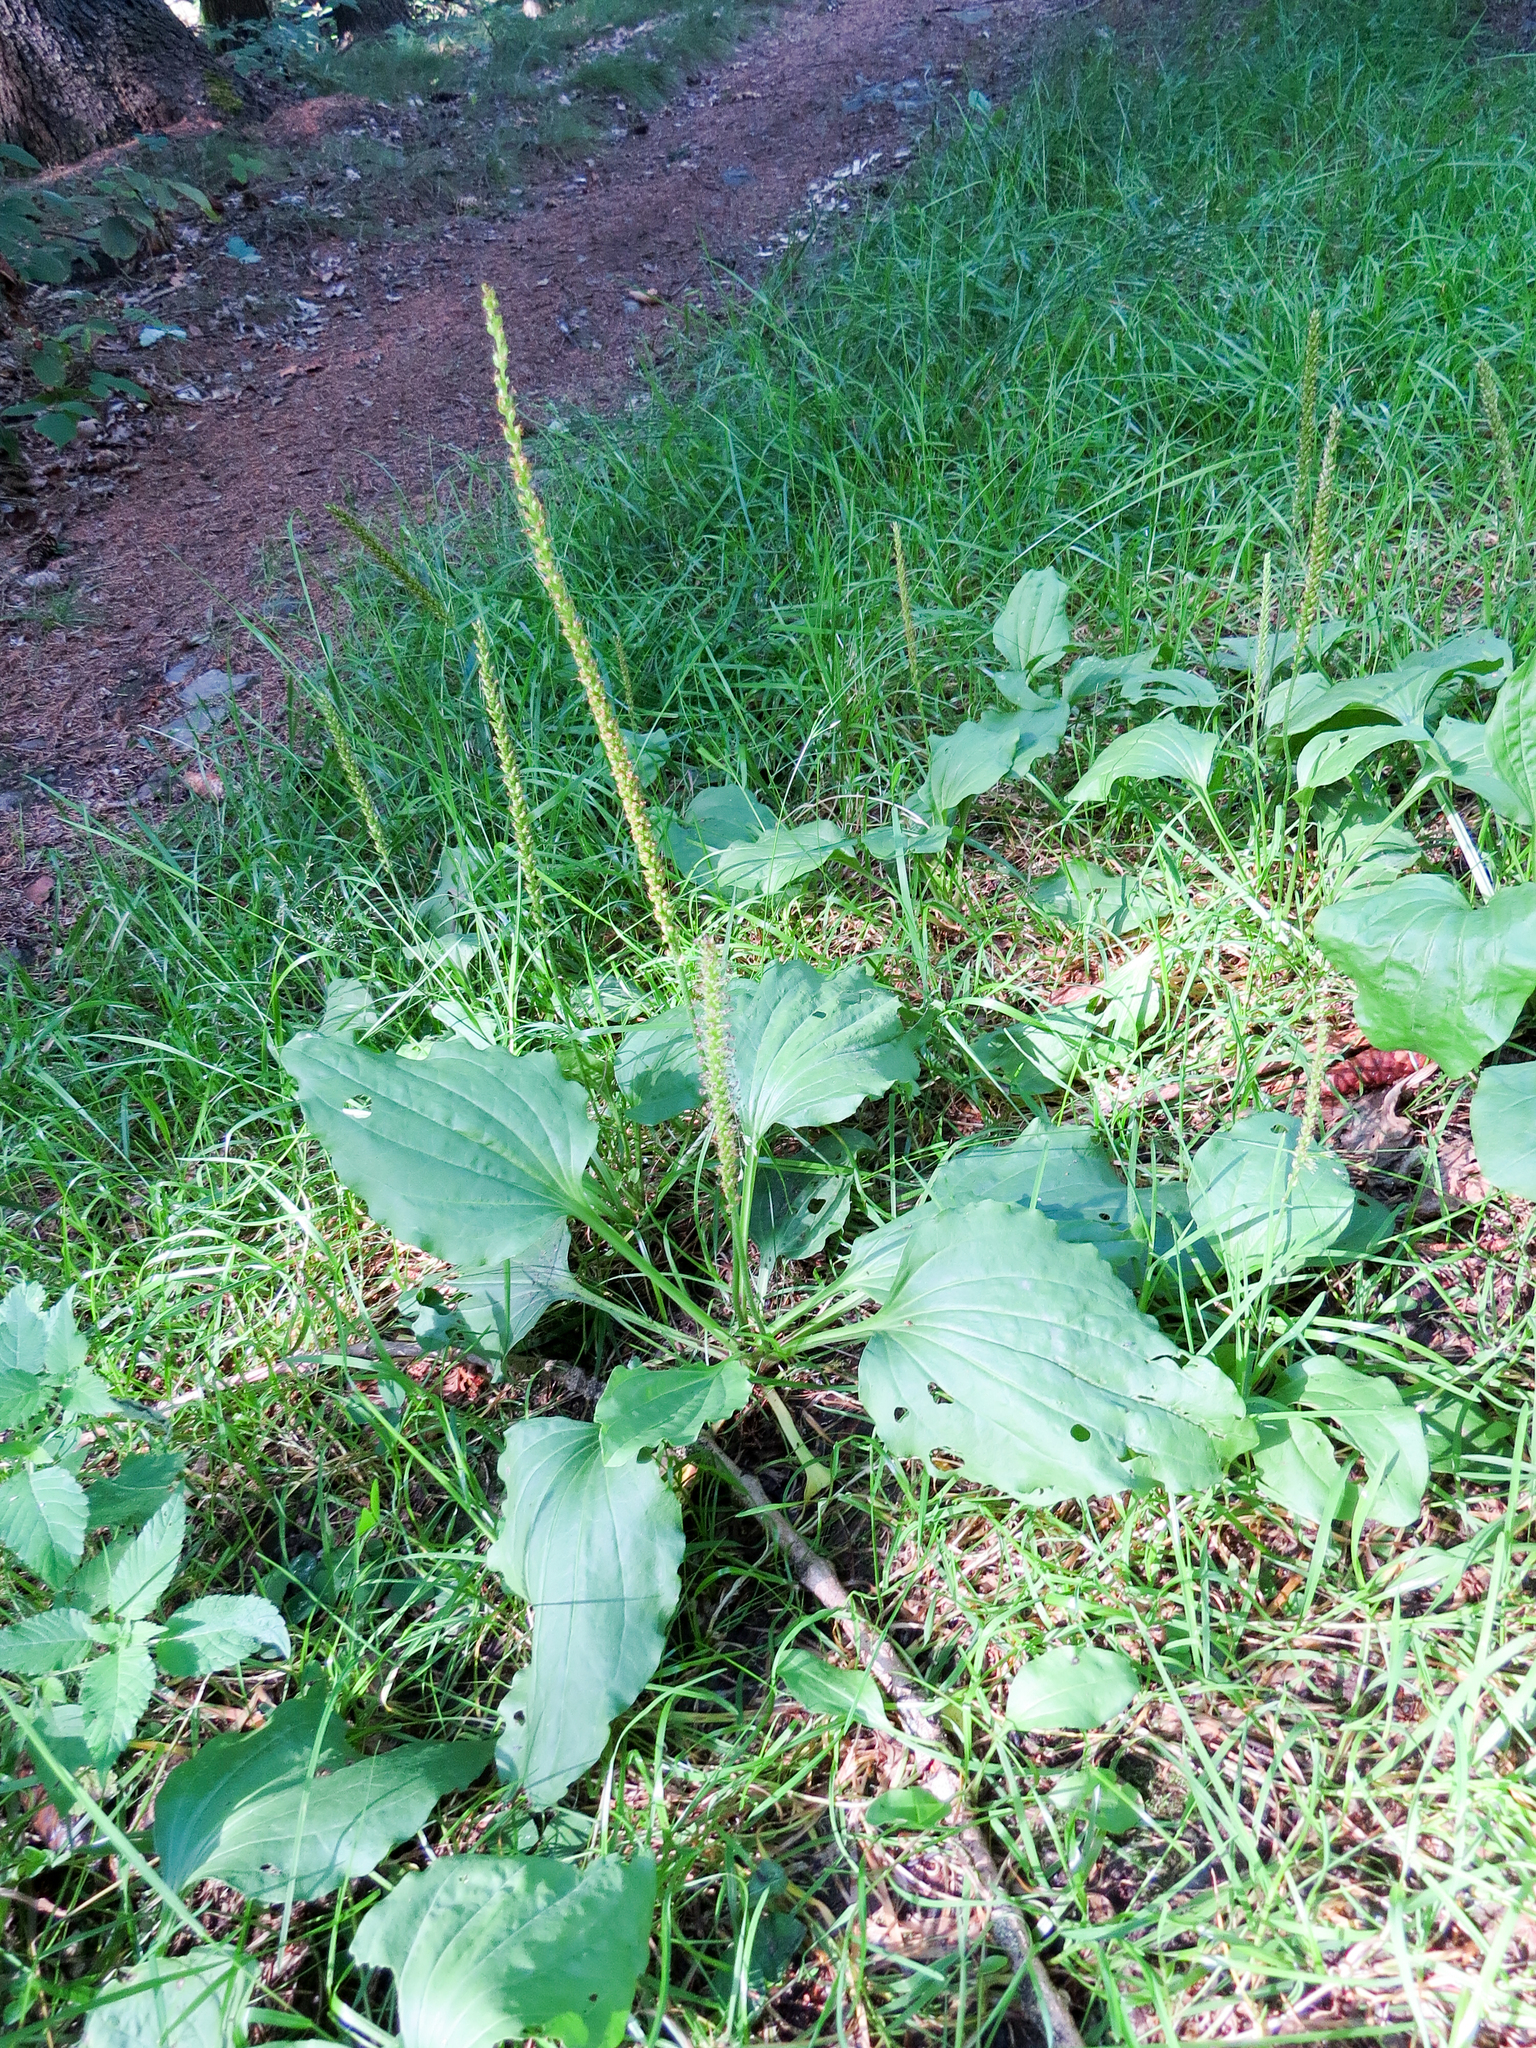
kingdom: Plantae
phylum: Tracheophyta
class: Magnoliopsida
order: Lamiales
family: Plantaginaceae
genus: Plantago
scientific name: Plantago major
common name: Common plantain
